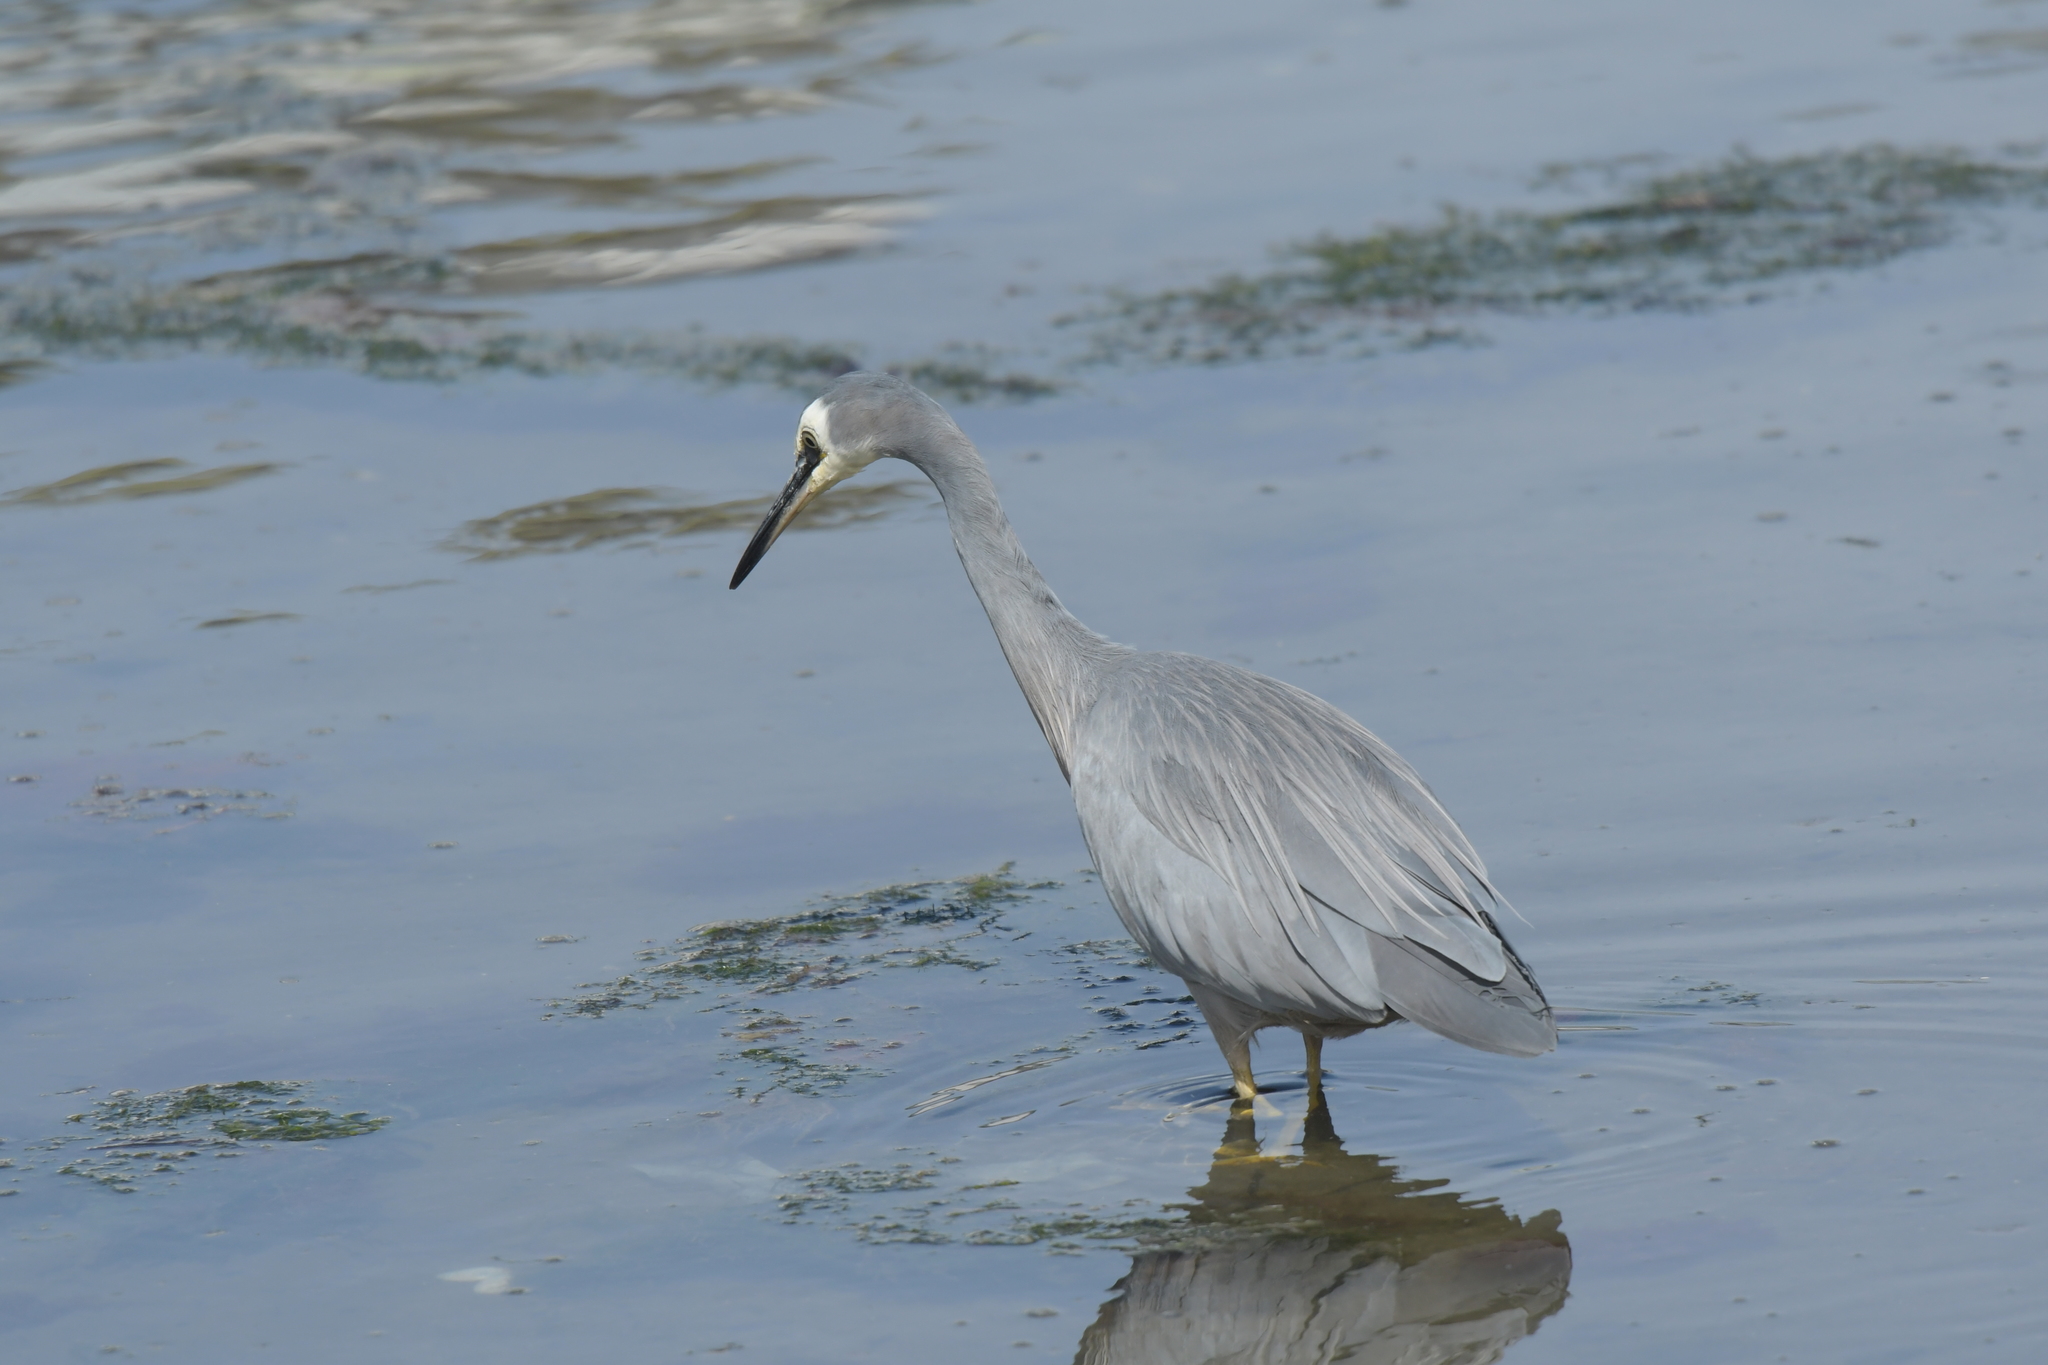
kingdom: Animalia
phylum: Chordata
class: Aves
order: Pelecaniformes
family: Ardeidae
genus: Egretta
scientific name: Egretta novaehollandiae
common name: White-faced heron
